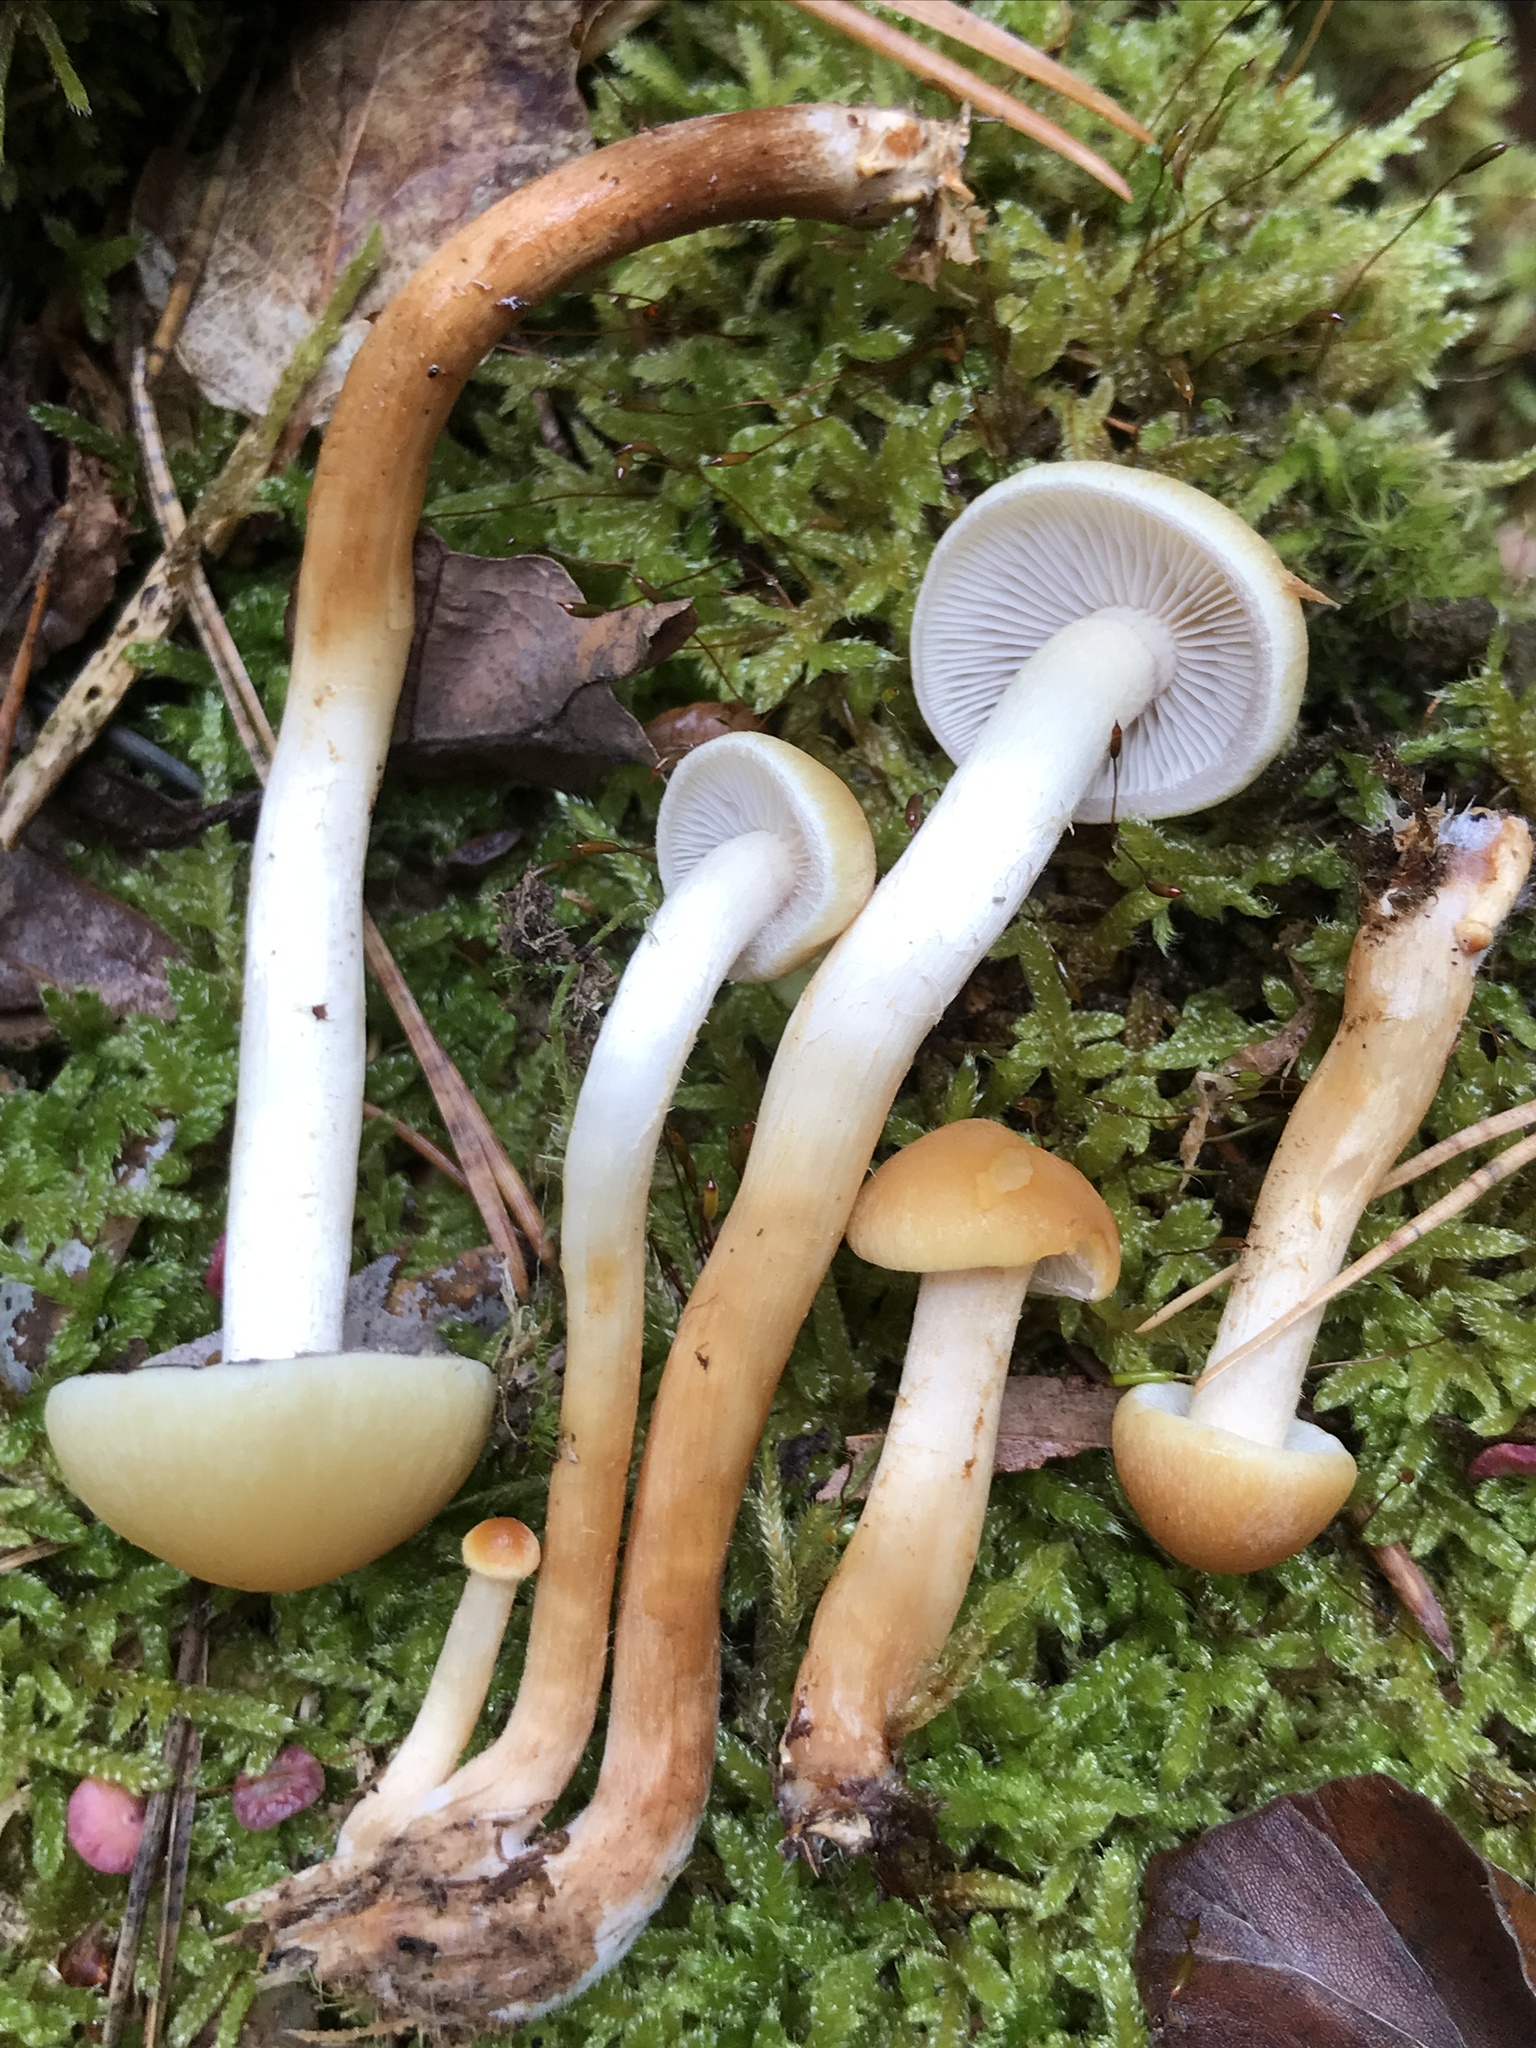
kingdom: Fungi
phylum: Basidiomycota
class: Agaricomycetes
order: Agaricales
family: Strophariaceae
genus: Hypholoma
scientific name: Hypholoma capnoides
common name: Conifer tuft
